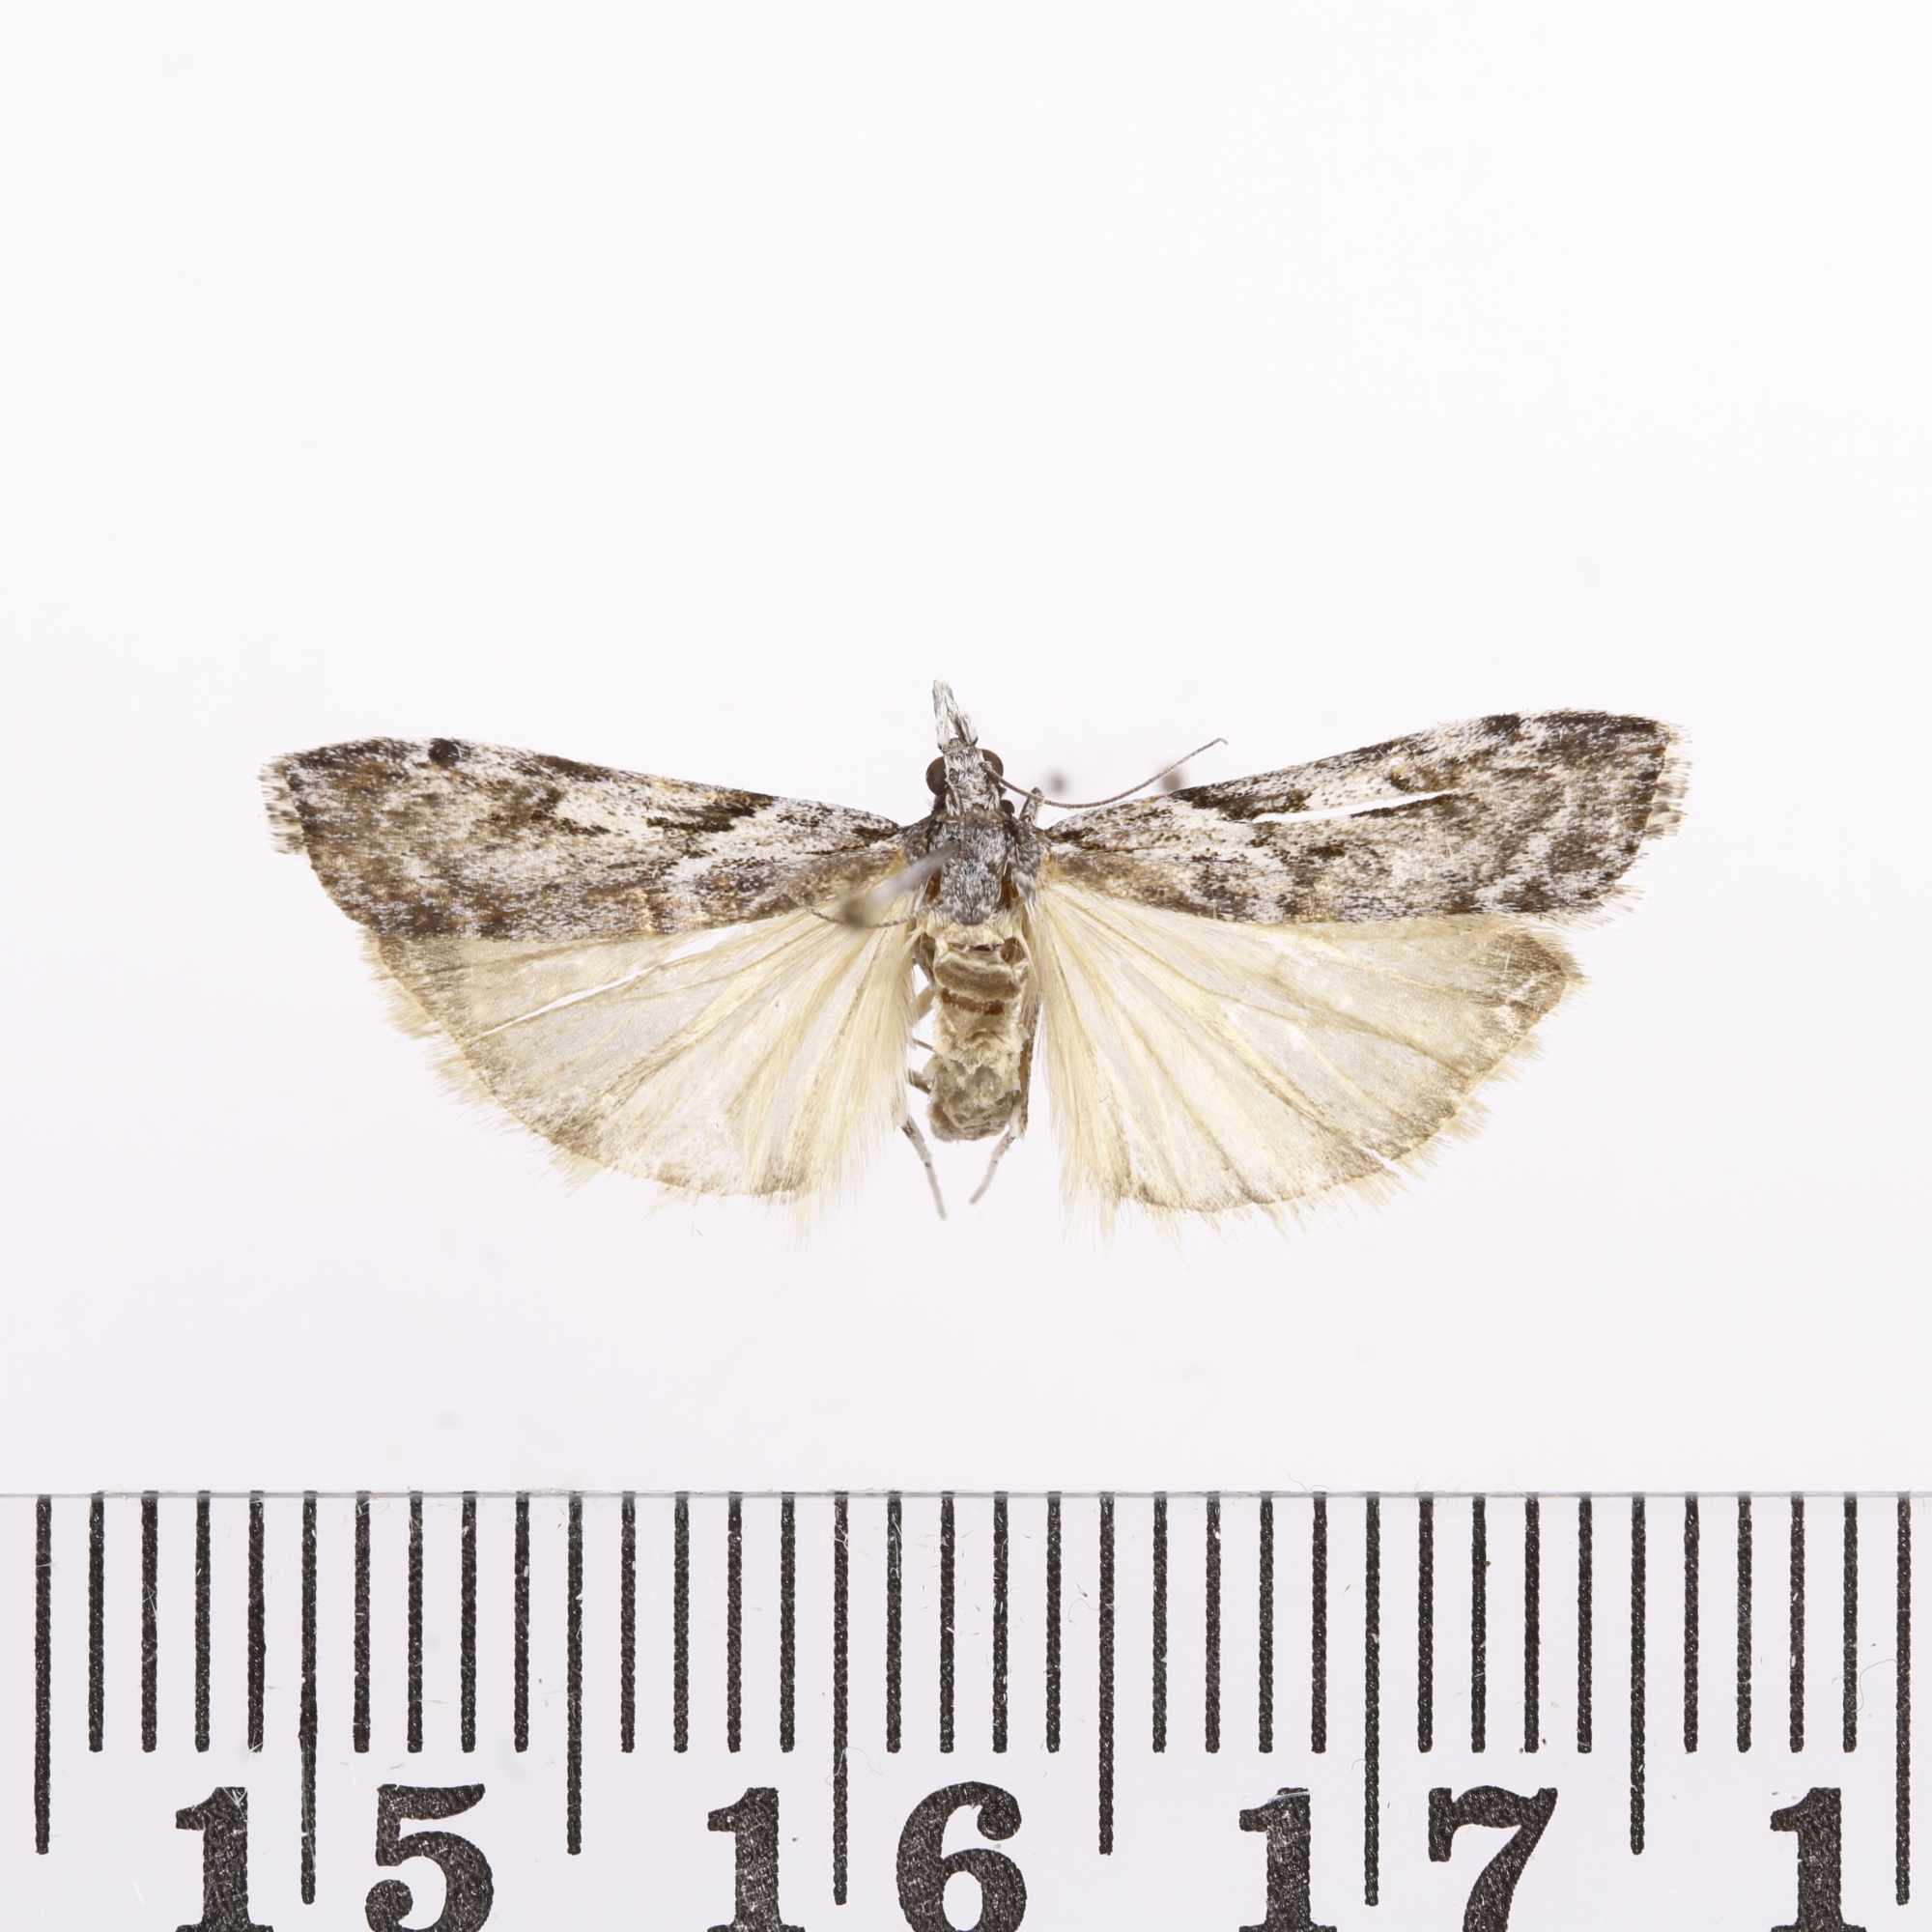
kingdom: Animalia
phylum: Arthropoda
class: Insecta
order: Lepidoptera
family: Crambidae
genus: Scoparia
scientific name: Scoparia halopis
